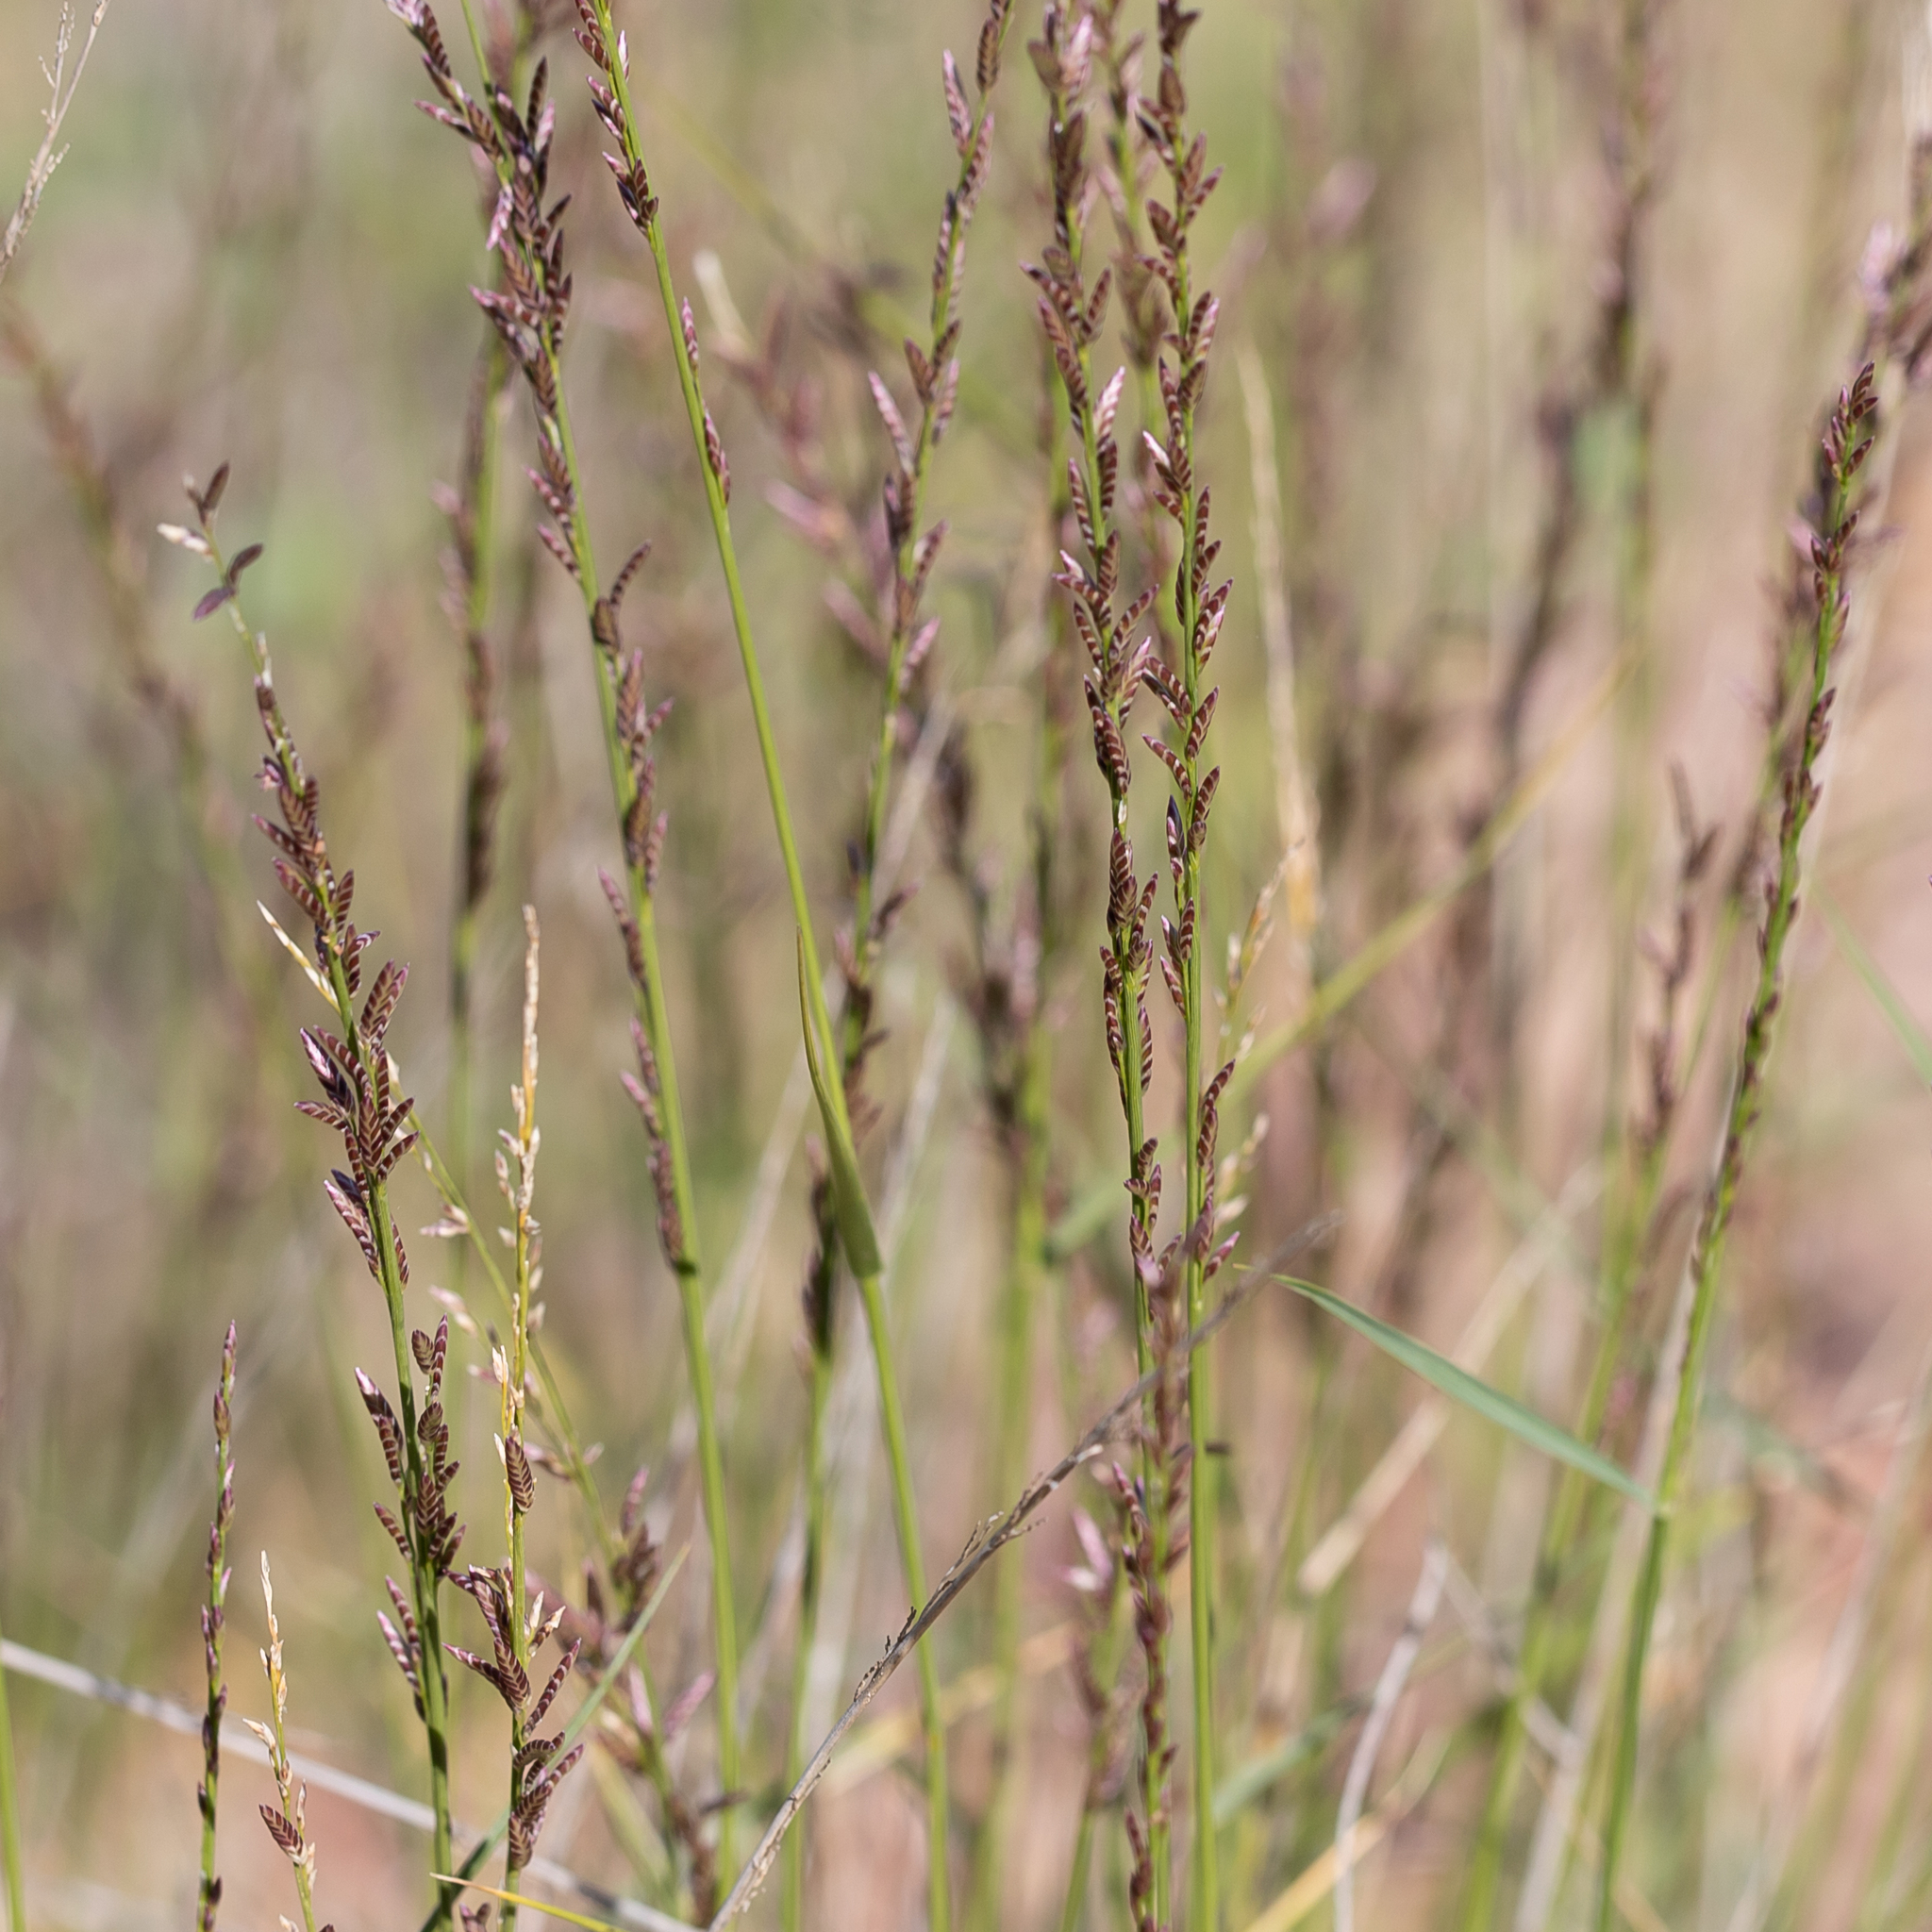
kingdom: Plantae
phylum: Tracheophyta
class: Liliopsida
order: Poales
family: Poaceae
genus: Eragrostis
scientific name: Eragrostis xerophila
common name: Wire wandarrie grass
